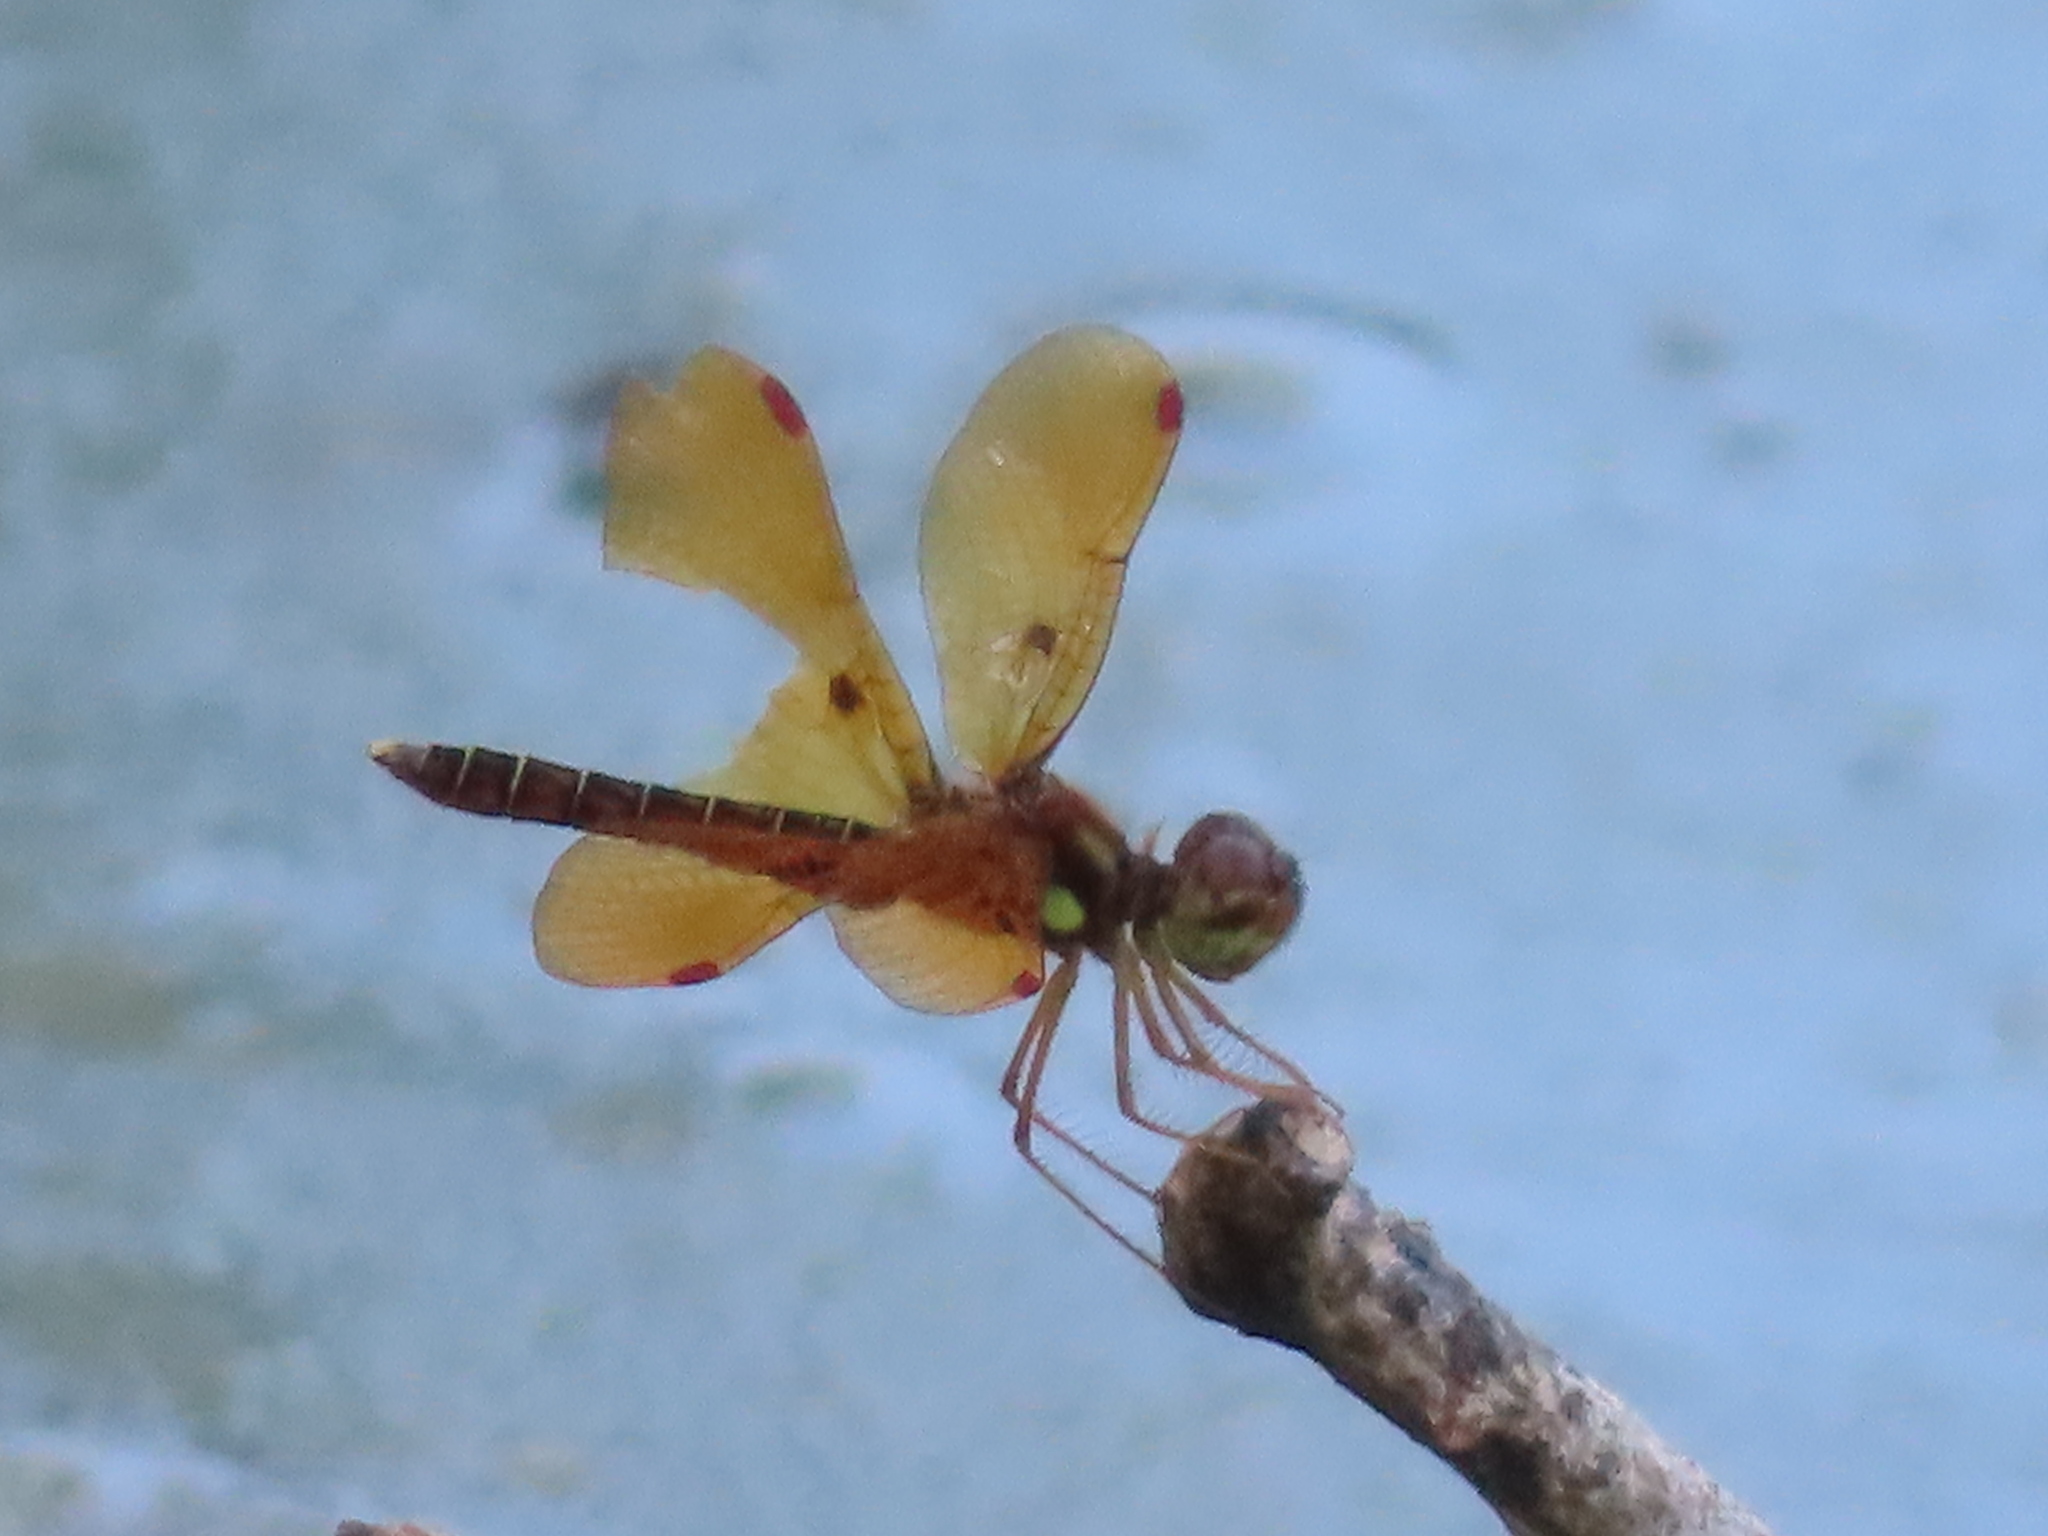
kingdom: Animalia
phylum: Arthropoda
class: Insecta
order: Odonata
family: Libellulidae
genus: Perithemis
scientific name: Perithemis tenera
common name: Eastern amberwing
